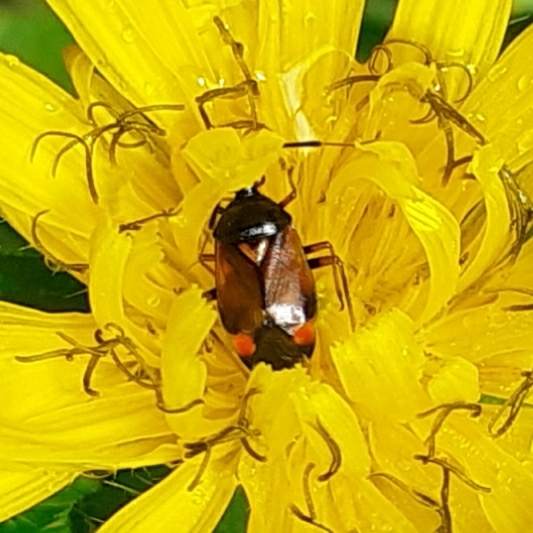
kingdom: Animalia
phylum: Arthropoda
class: Insecta
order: Hemiptera
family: Miridae
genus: Deraeocoris
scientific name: Deraeocoris ruber
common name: Plant bug
